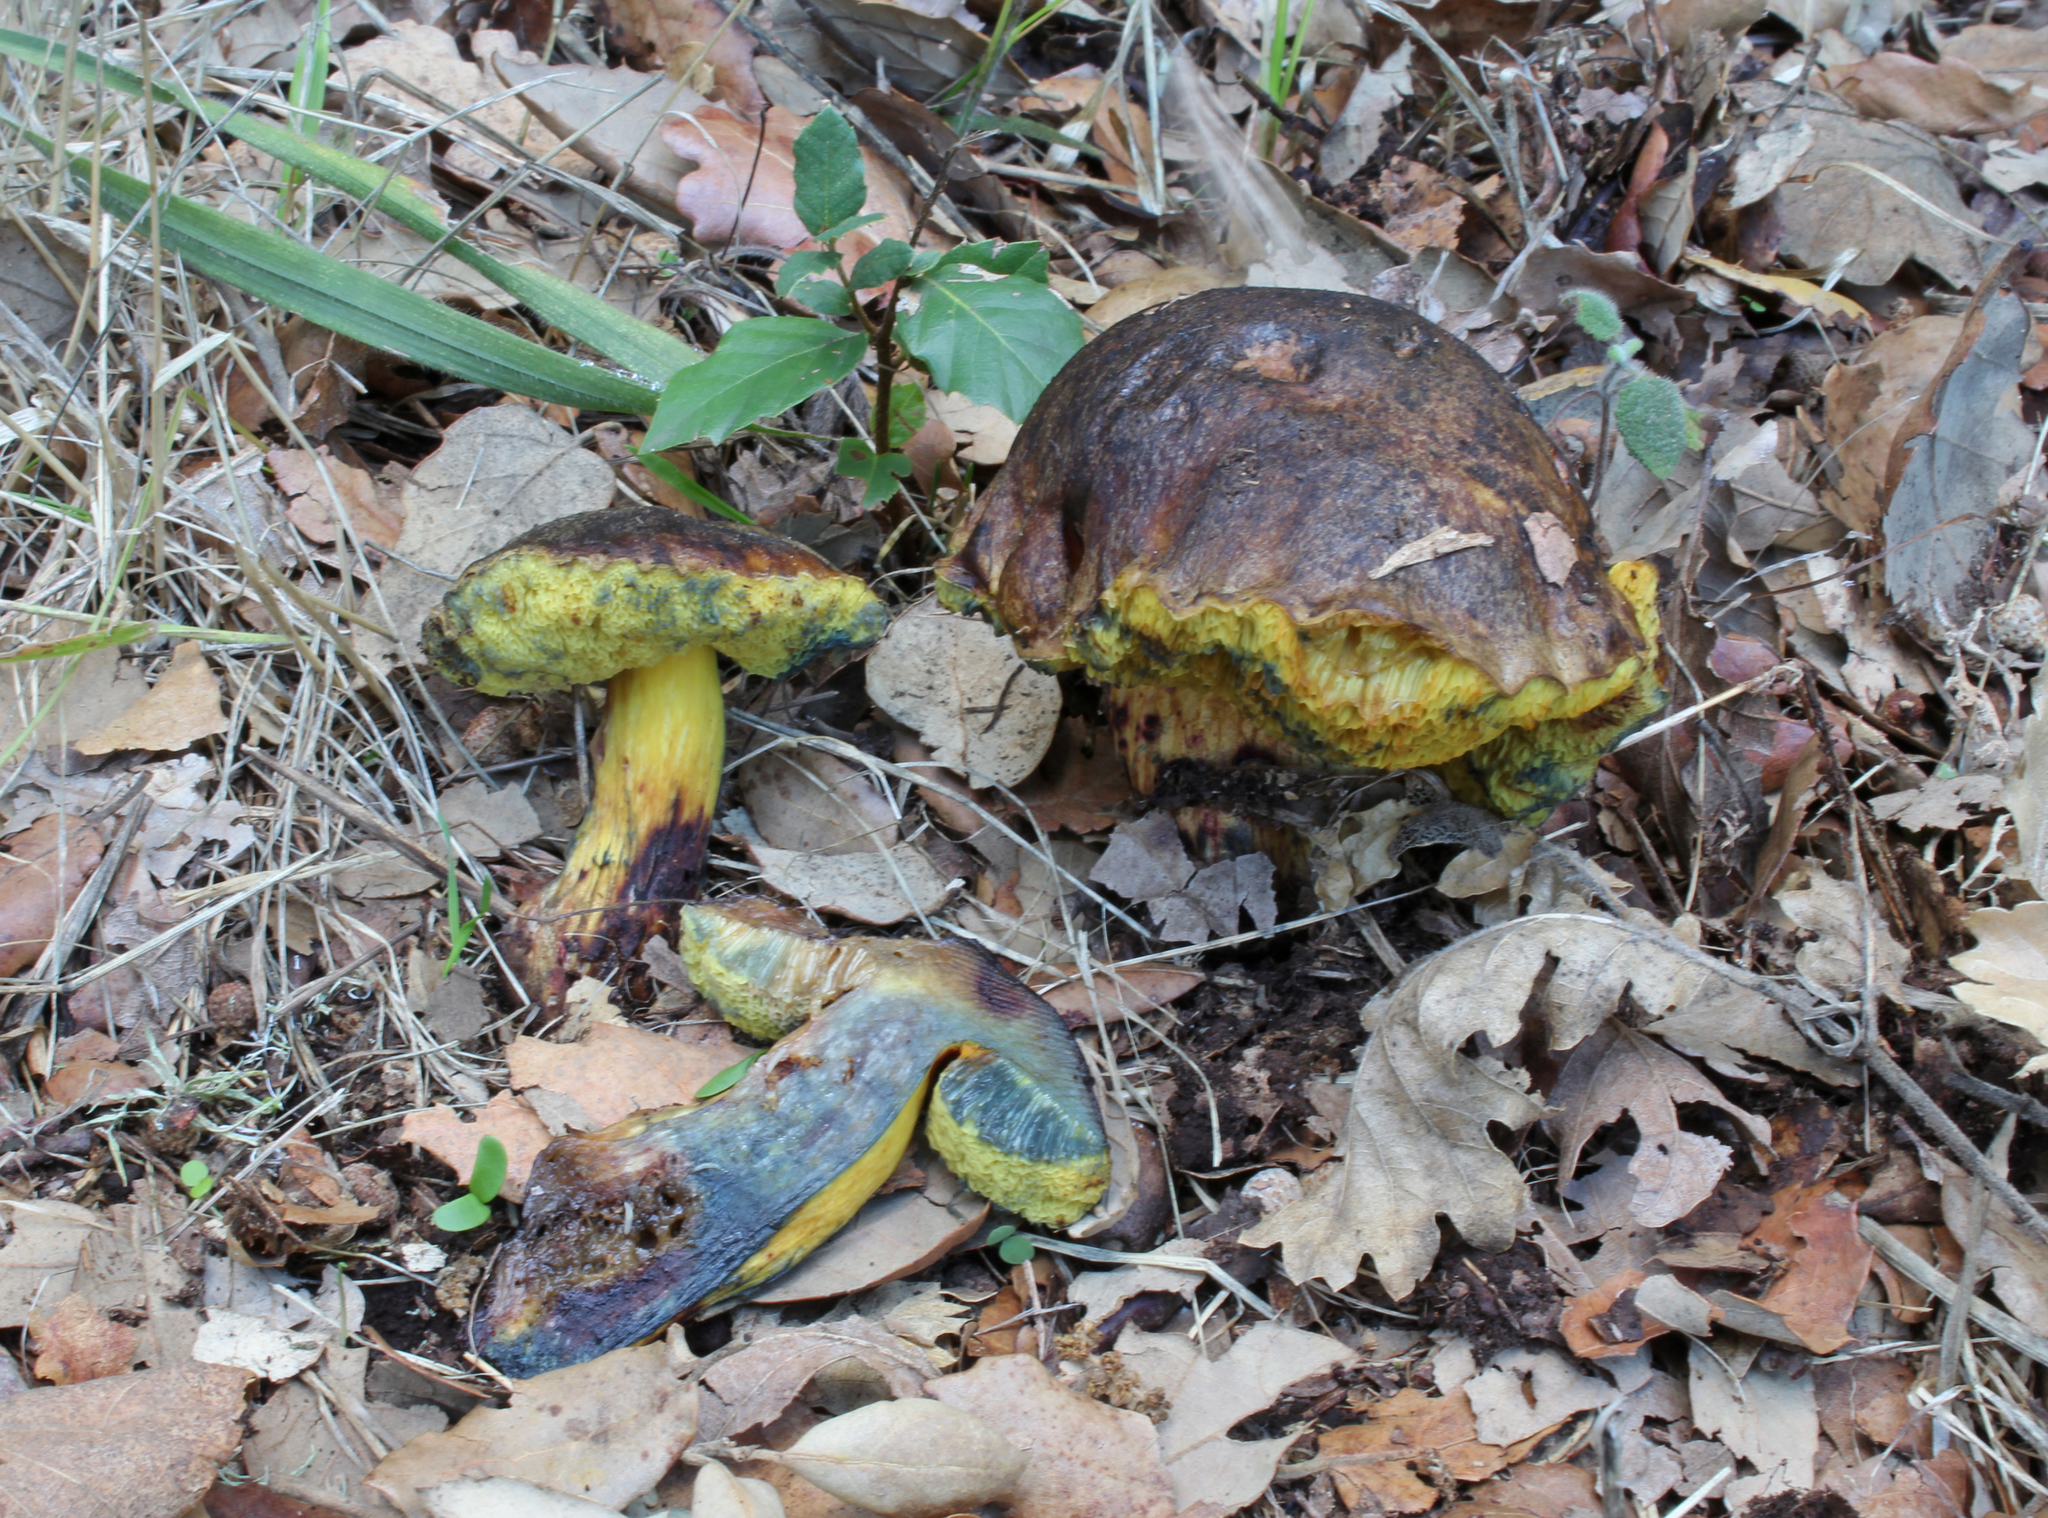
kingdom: Fungi
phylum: Basidiomycota
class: Agaricomycetes
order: Boletales
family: Boletaceae
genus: Alessioporus
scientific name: Alessioporus ichnusanus
